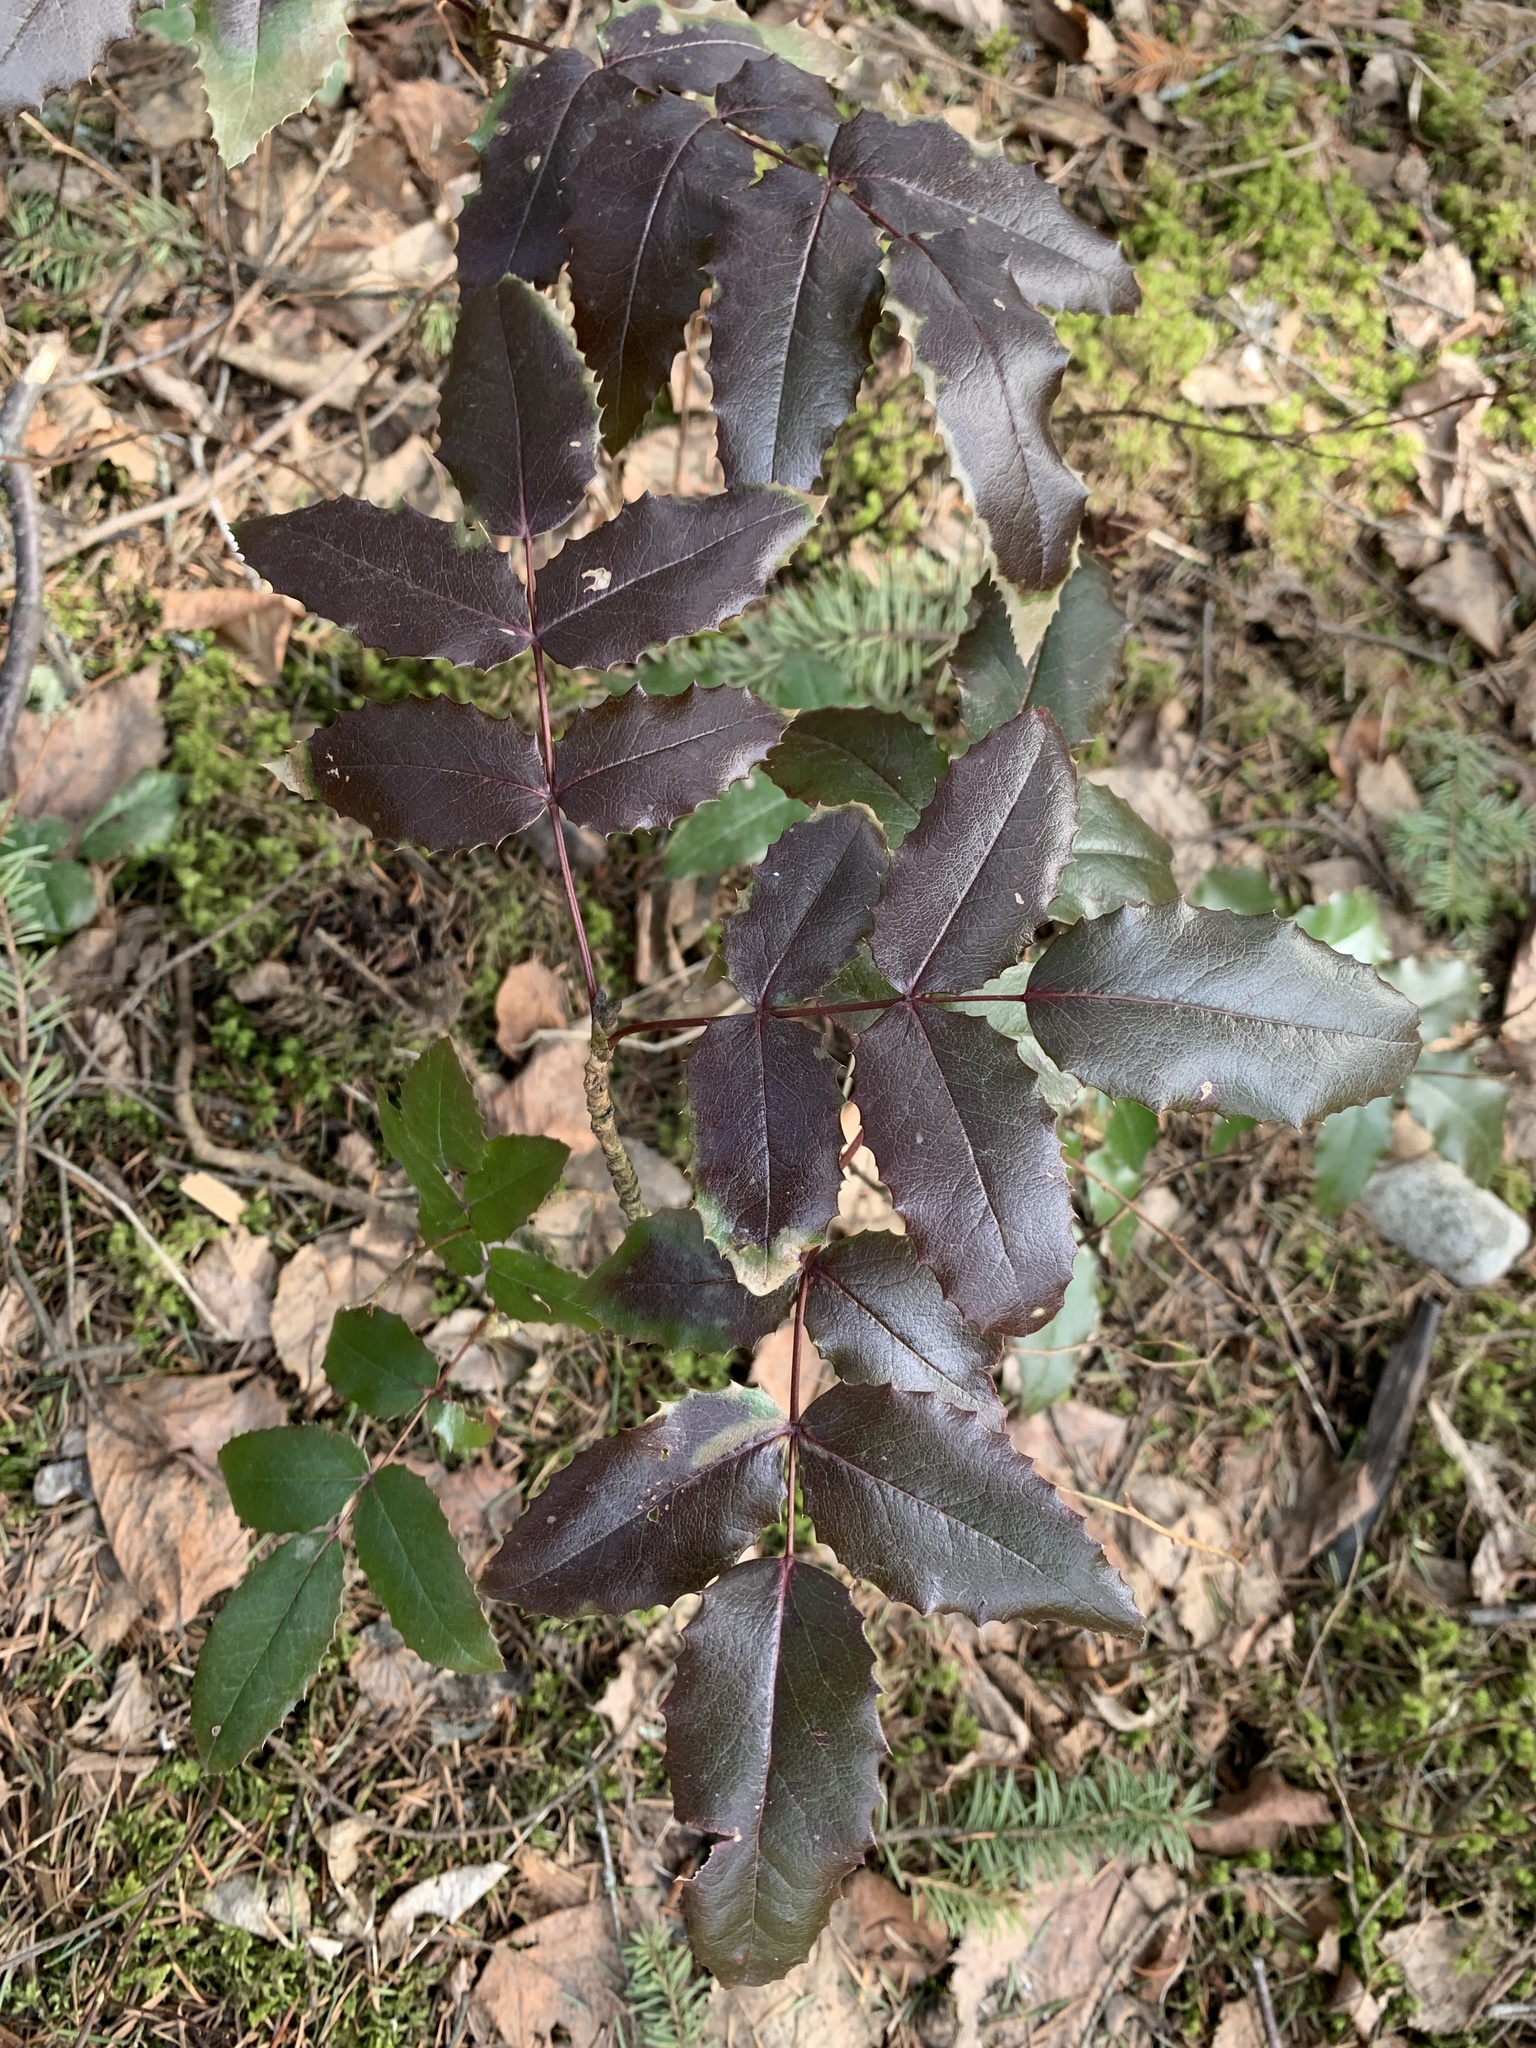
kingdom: Plantae
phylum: Tracheophyta
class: Magnoliopsida
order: Ranunculales
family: Berberidaceae
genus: Mahonia
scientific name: Mahonia aquifolium
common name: Oregon-grape
